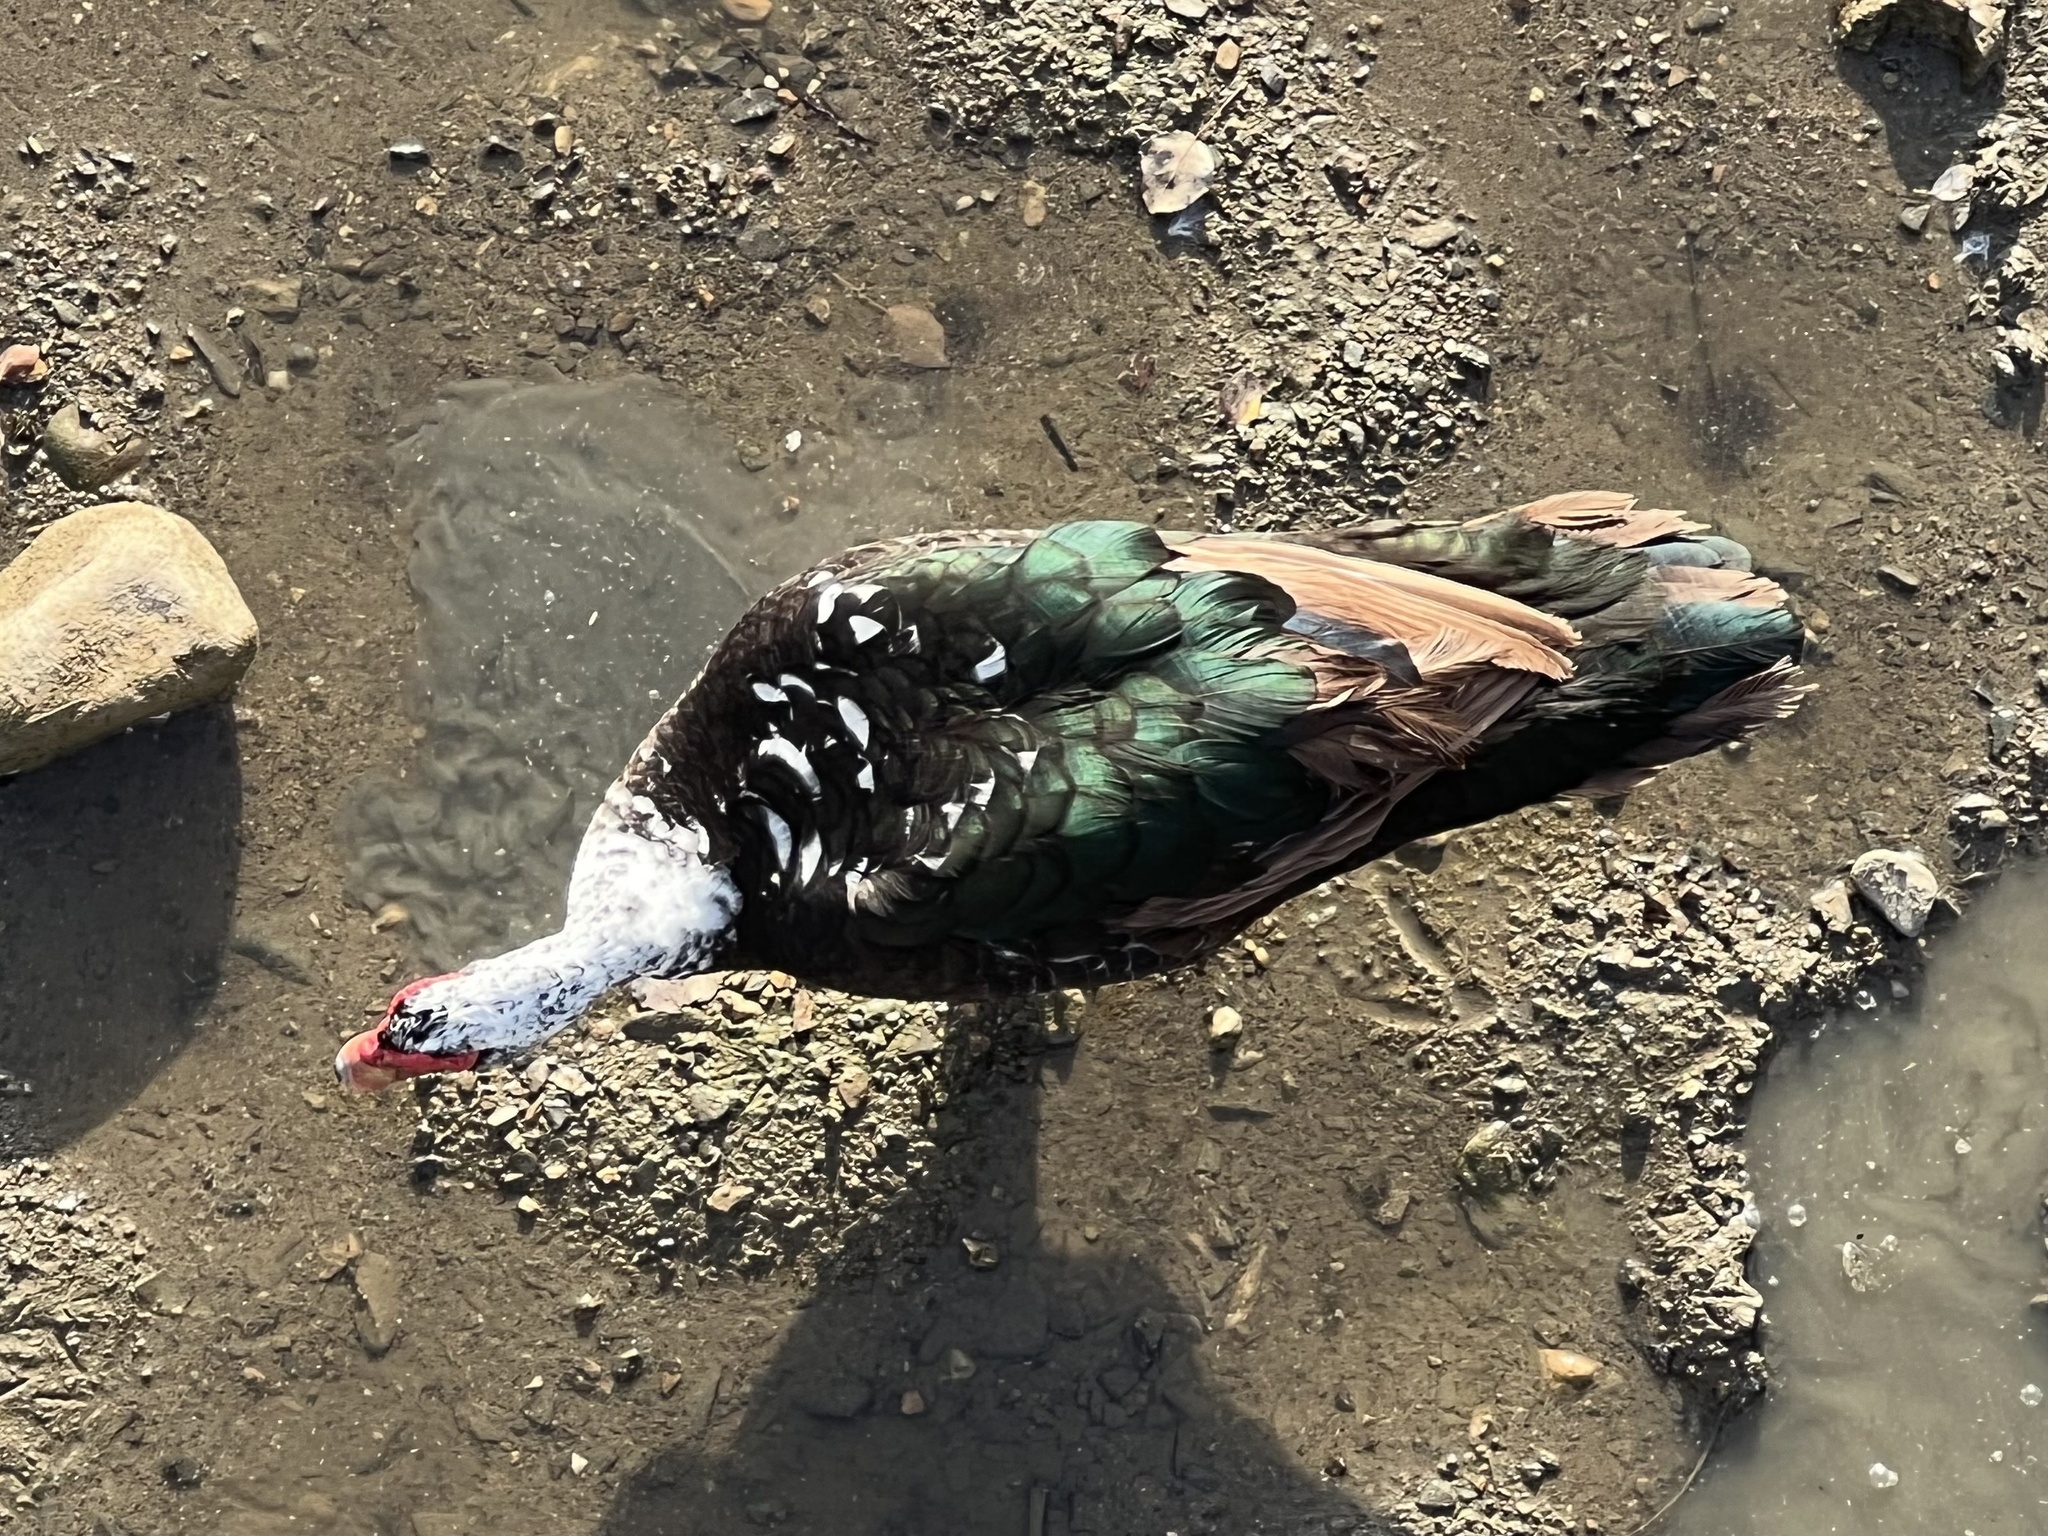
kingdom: Animalia
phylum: Chordata
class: Aves
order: Anseriformes
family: Anatidae
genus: Cairina
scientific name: Cairina moschata
